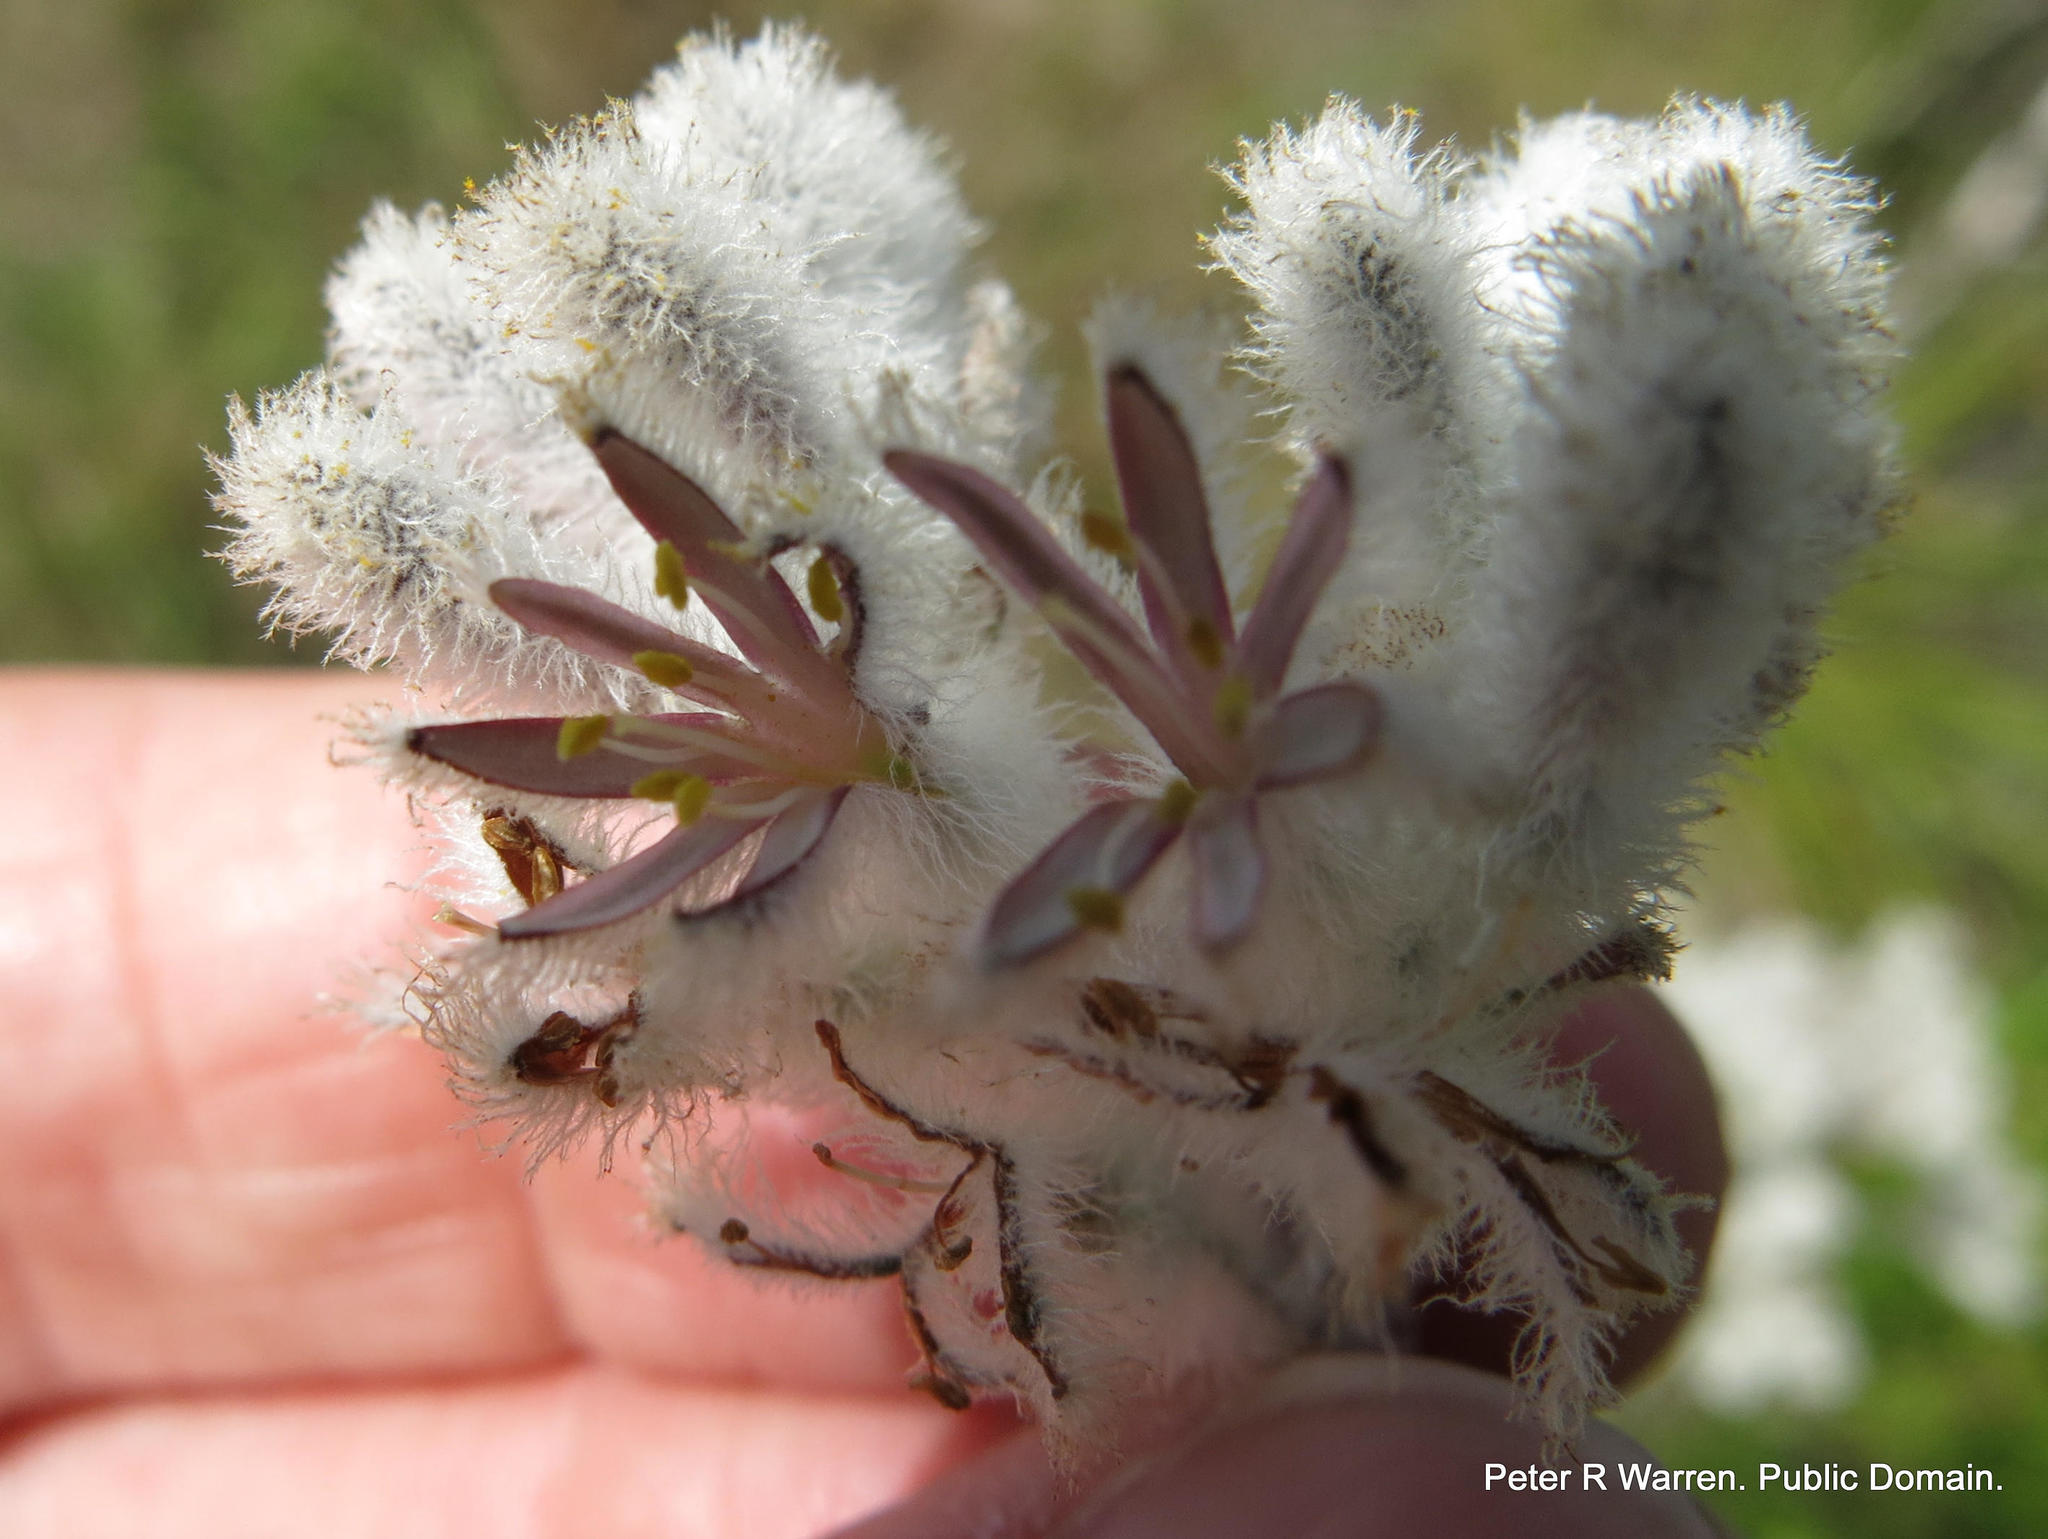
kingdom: Plantae
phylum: Tracheophyta
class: Liliopsida
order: Asparagales
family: Lanariaceae
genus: Lanaria
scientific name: Lanaria lanata
